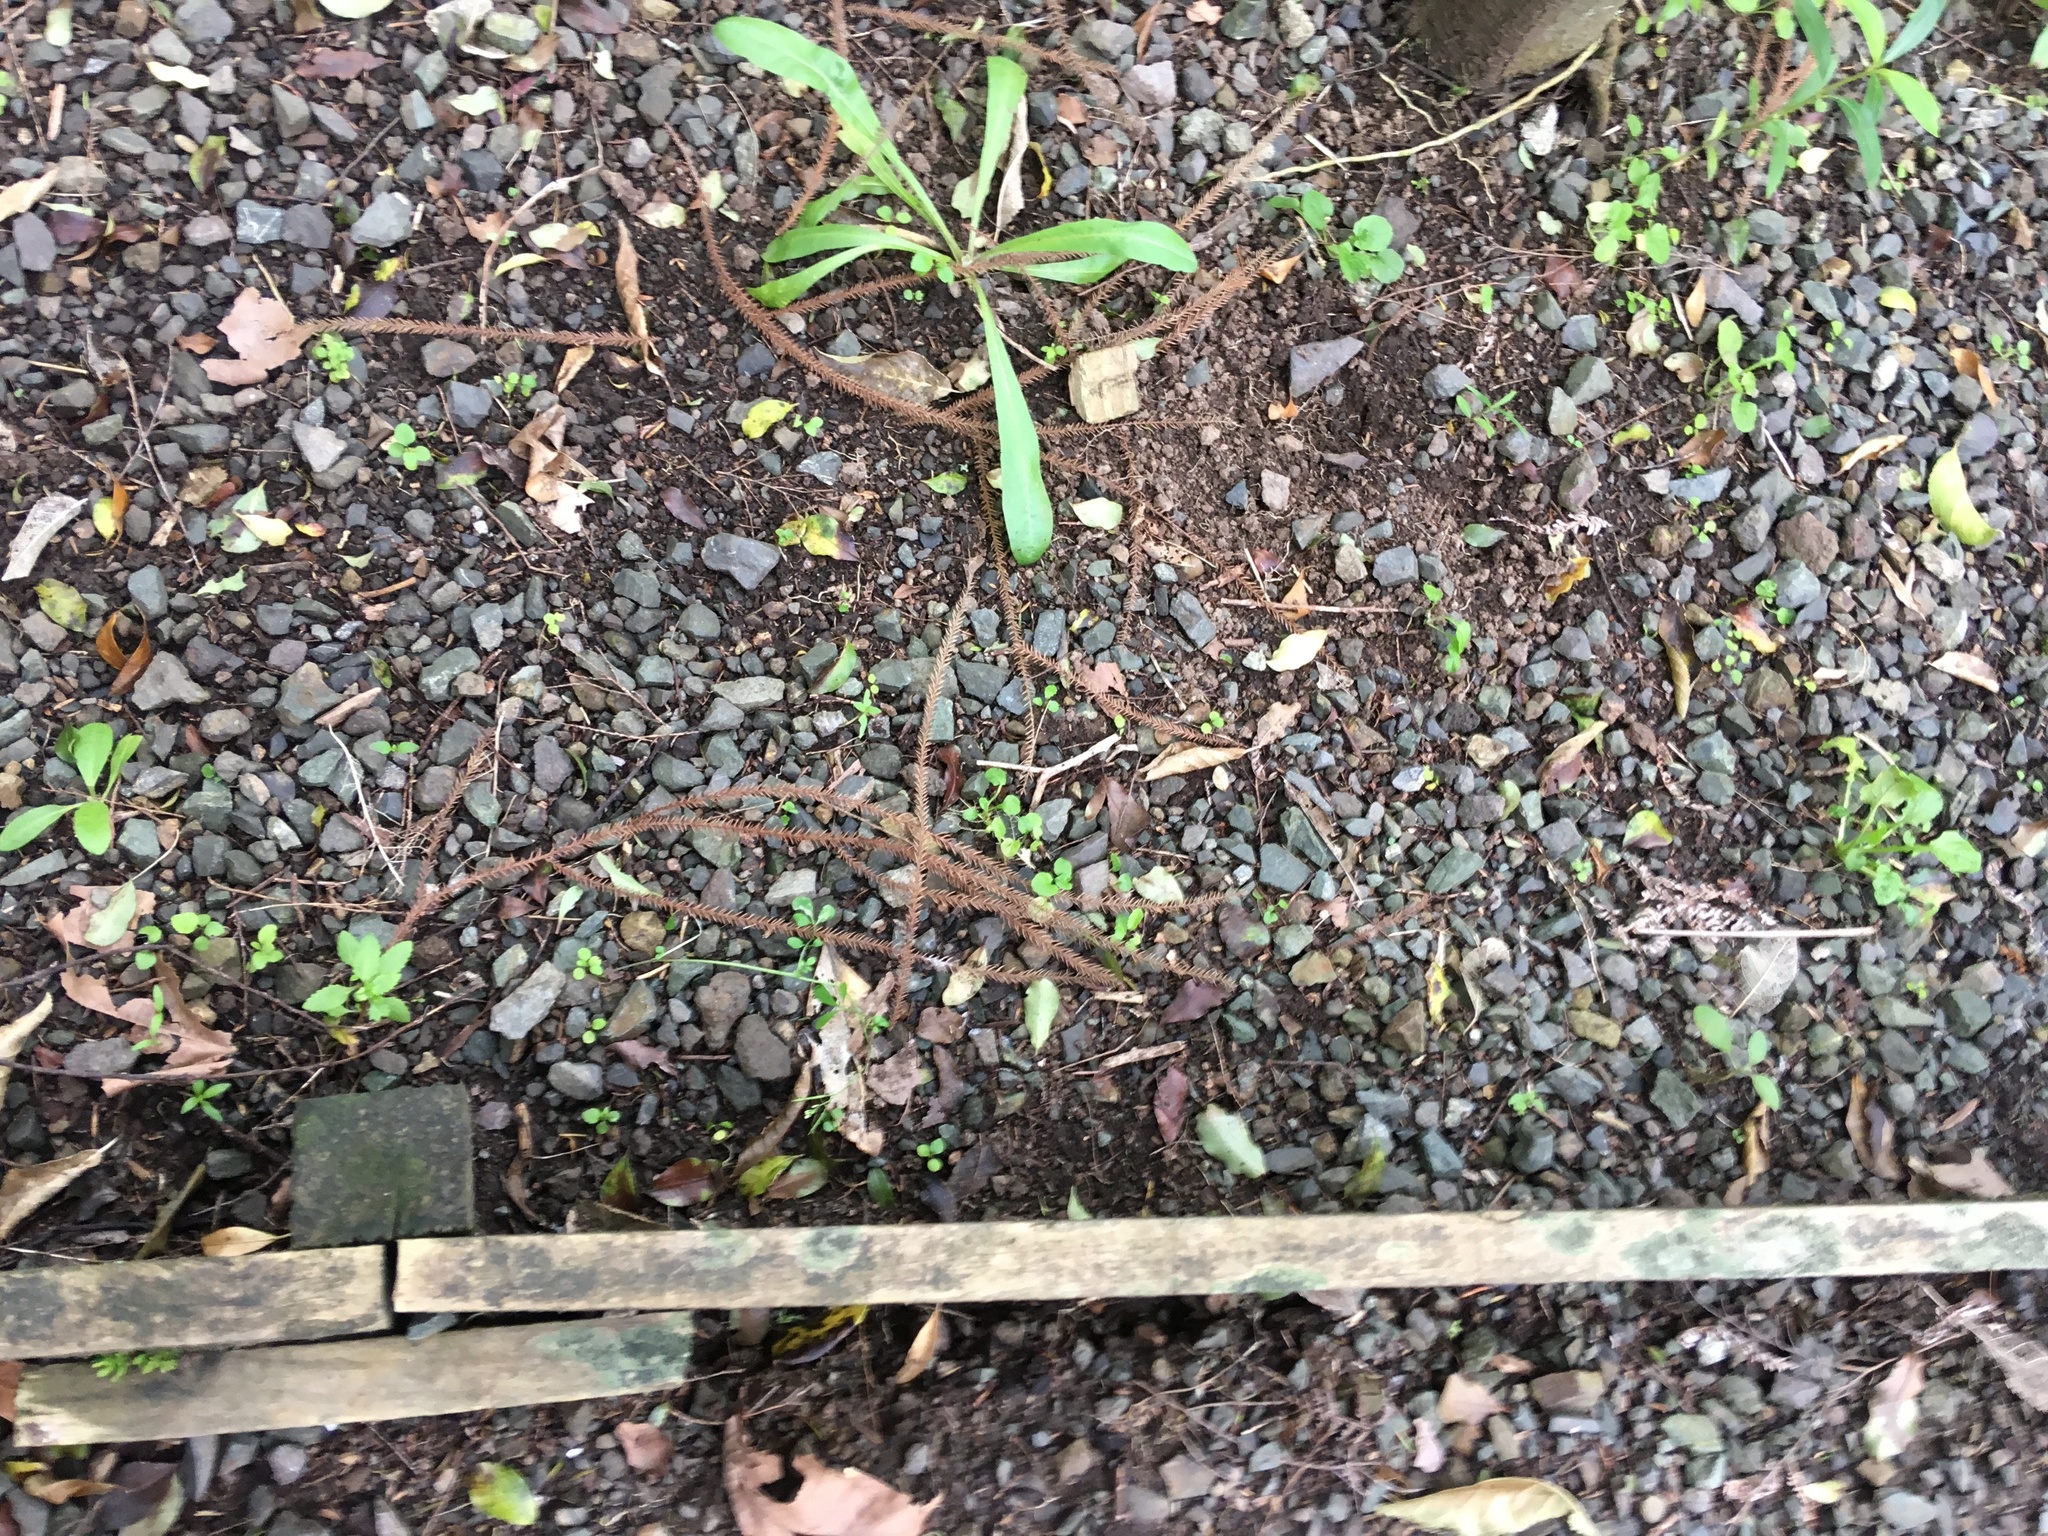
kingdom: Plantae
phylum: Tracheophyta
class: Magnoliopsida
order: Saxifragales
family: Haloragaceae
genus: Haloragis
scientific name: Haloragis erecta
